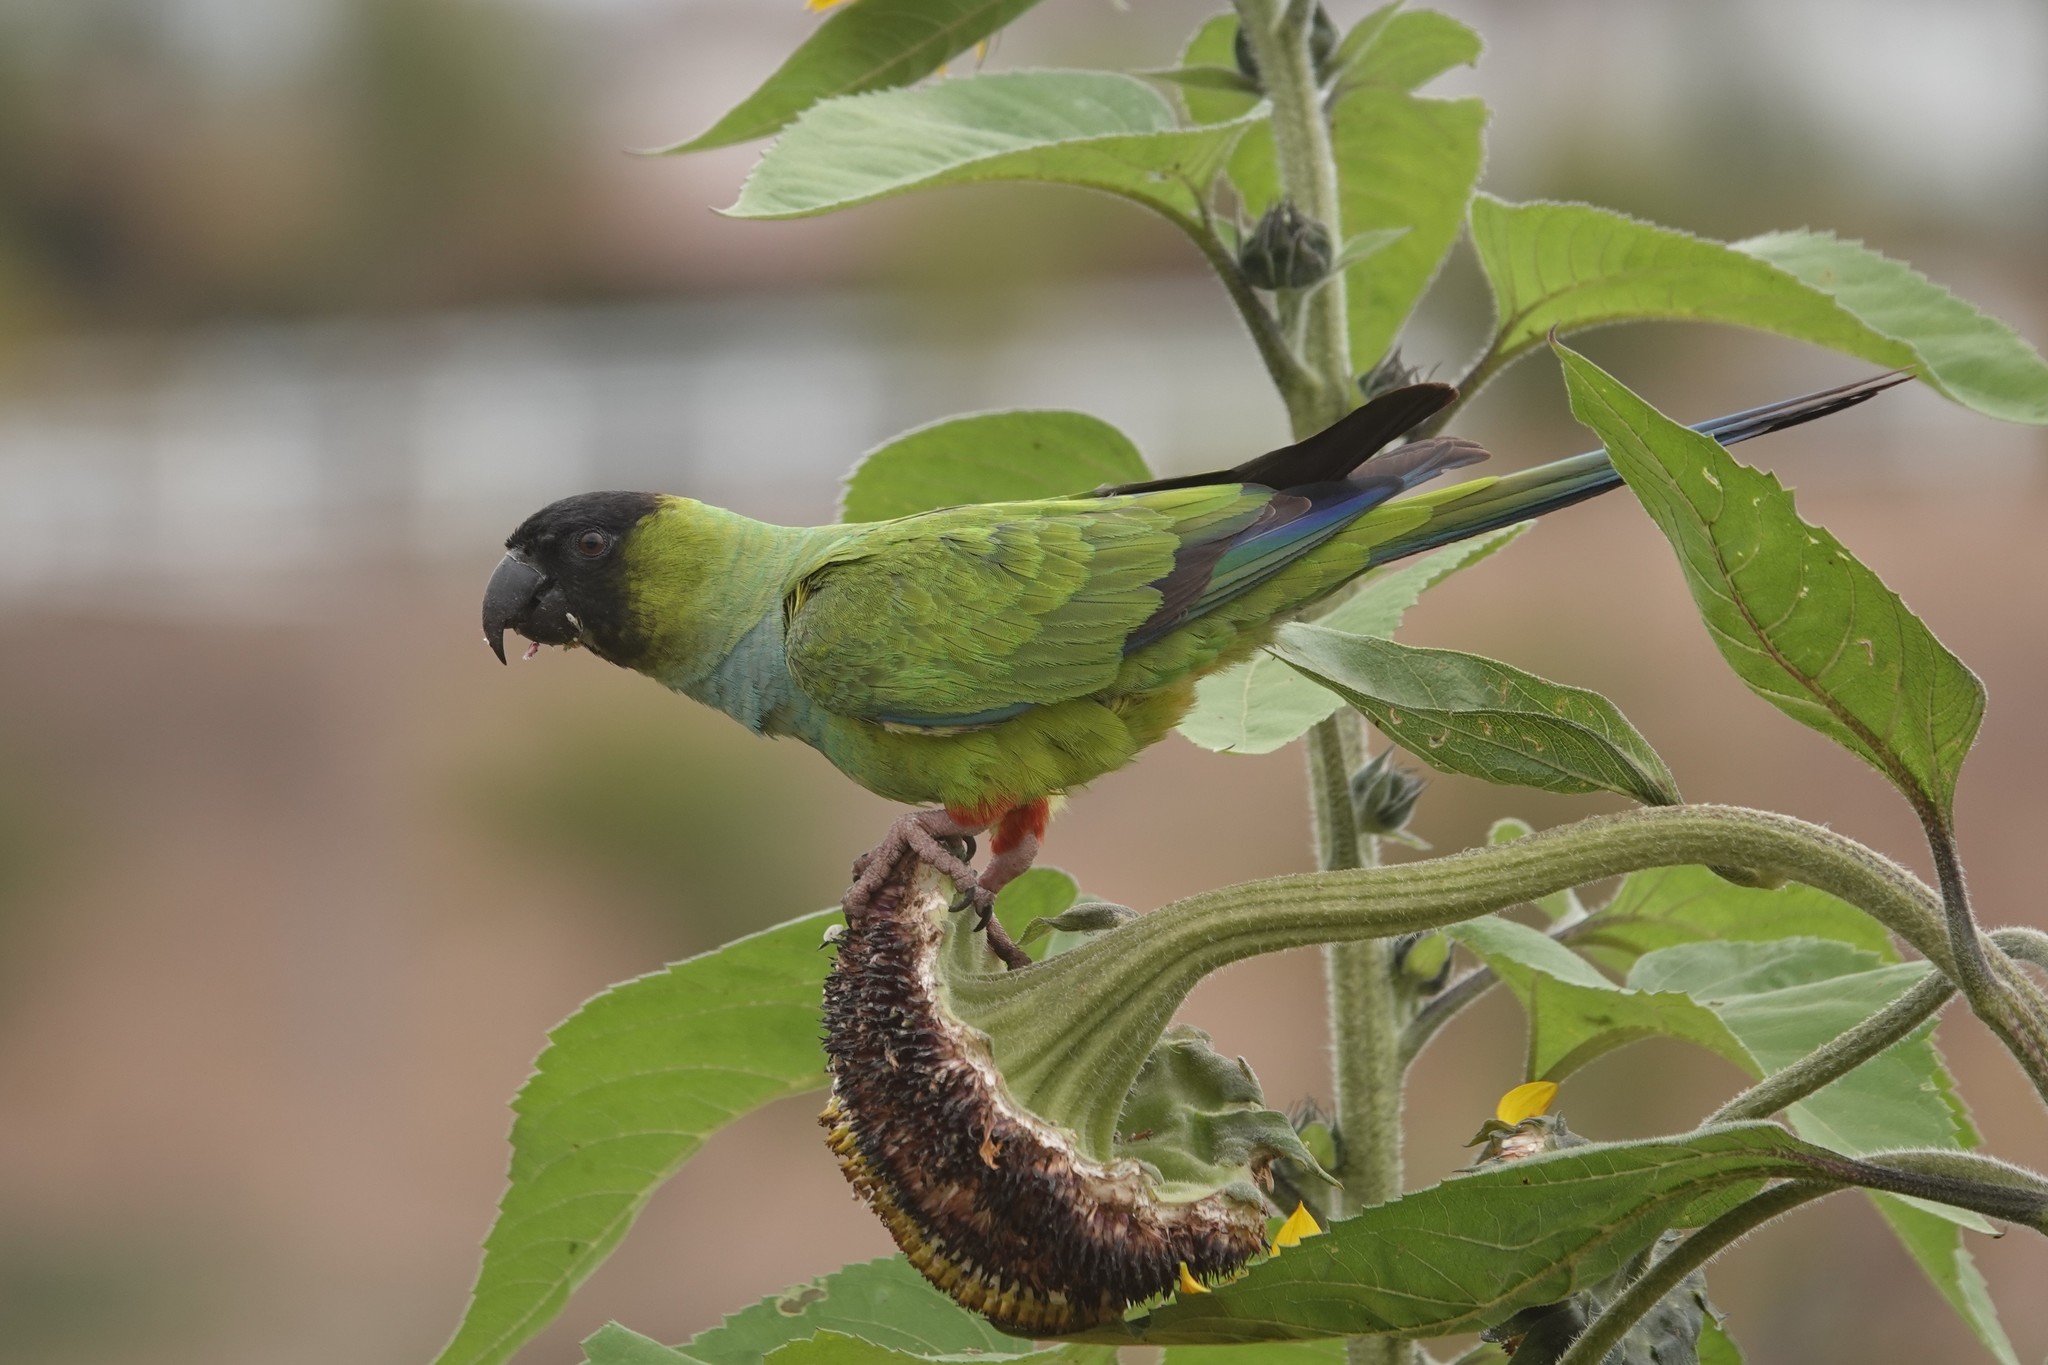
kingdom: Animalia
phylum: Chordata
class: Aves
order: Psittaciformes
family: Psittacidae
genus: Nandayus
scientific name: Nandayus nenday
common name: Nanday parakeet
